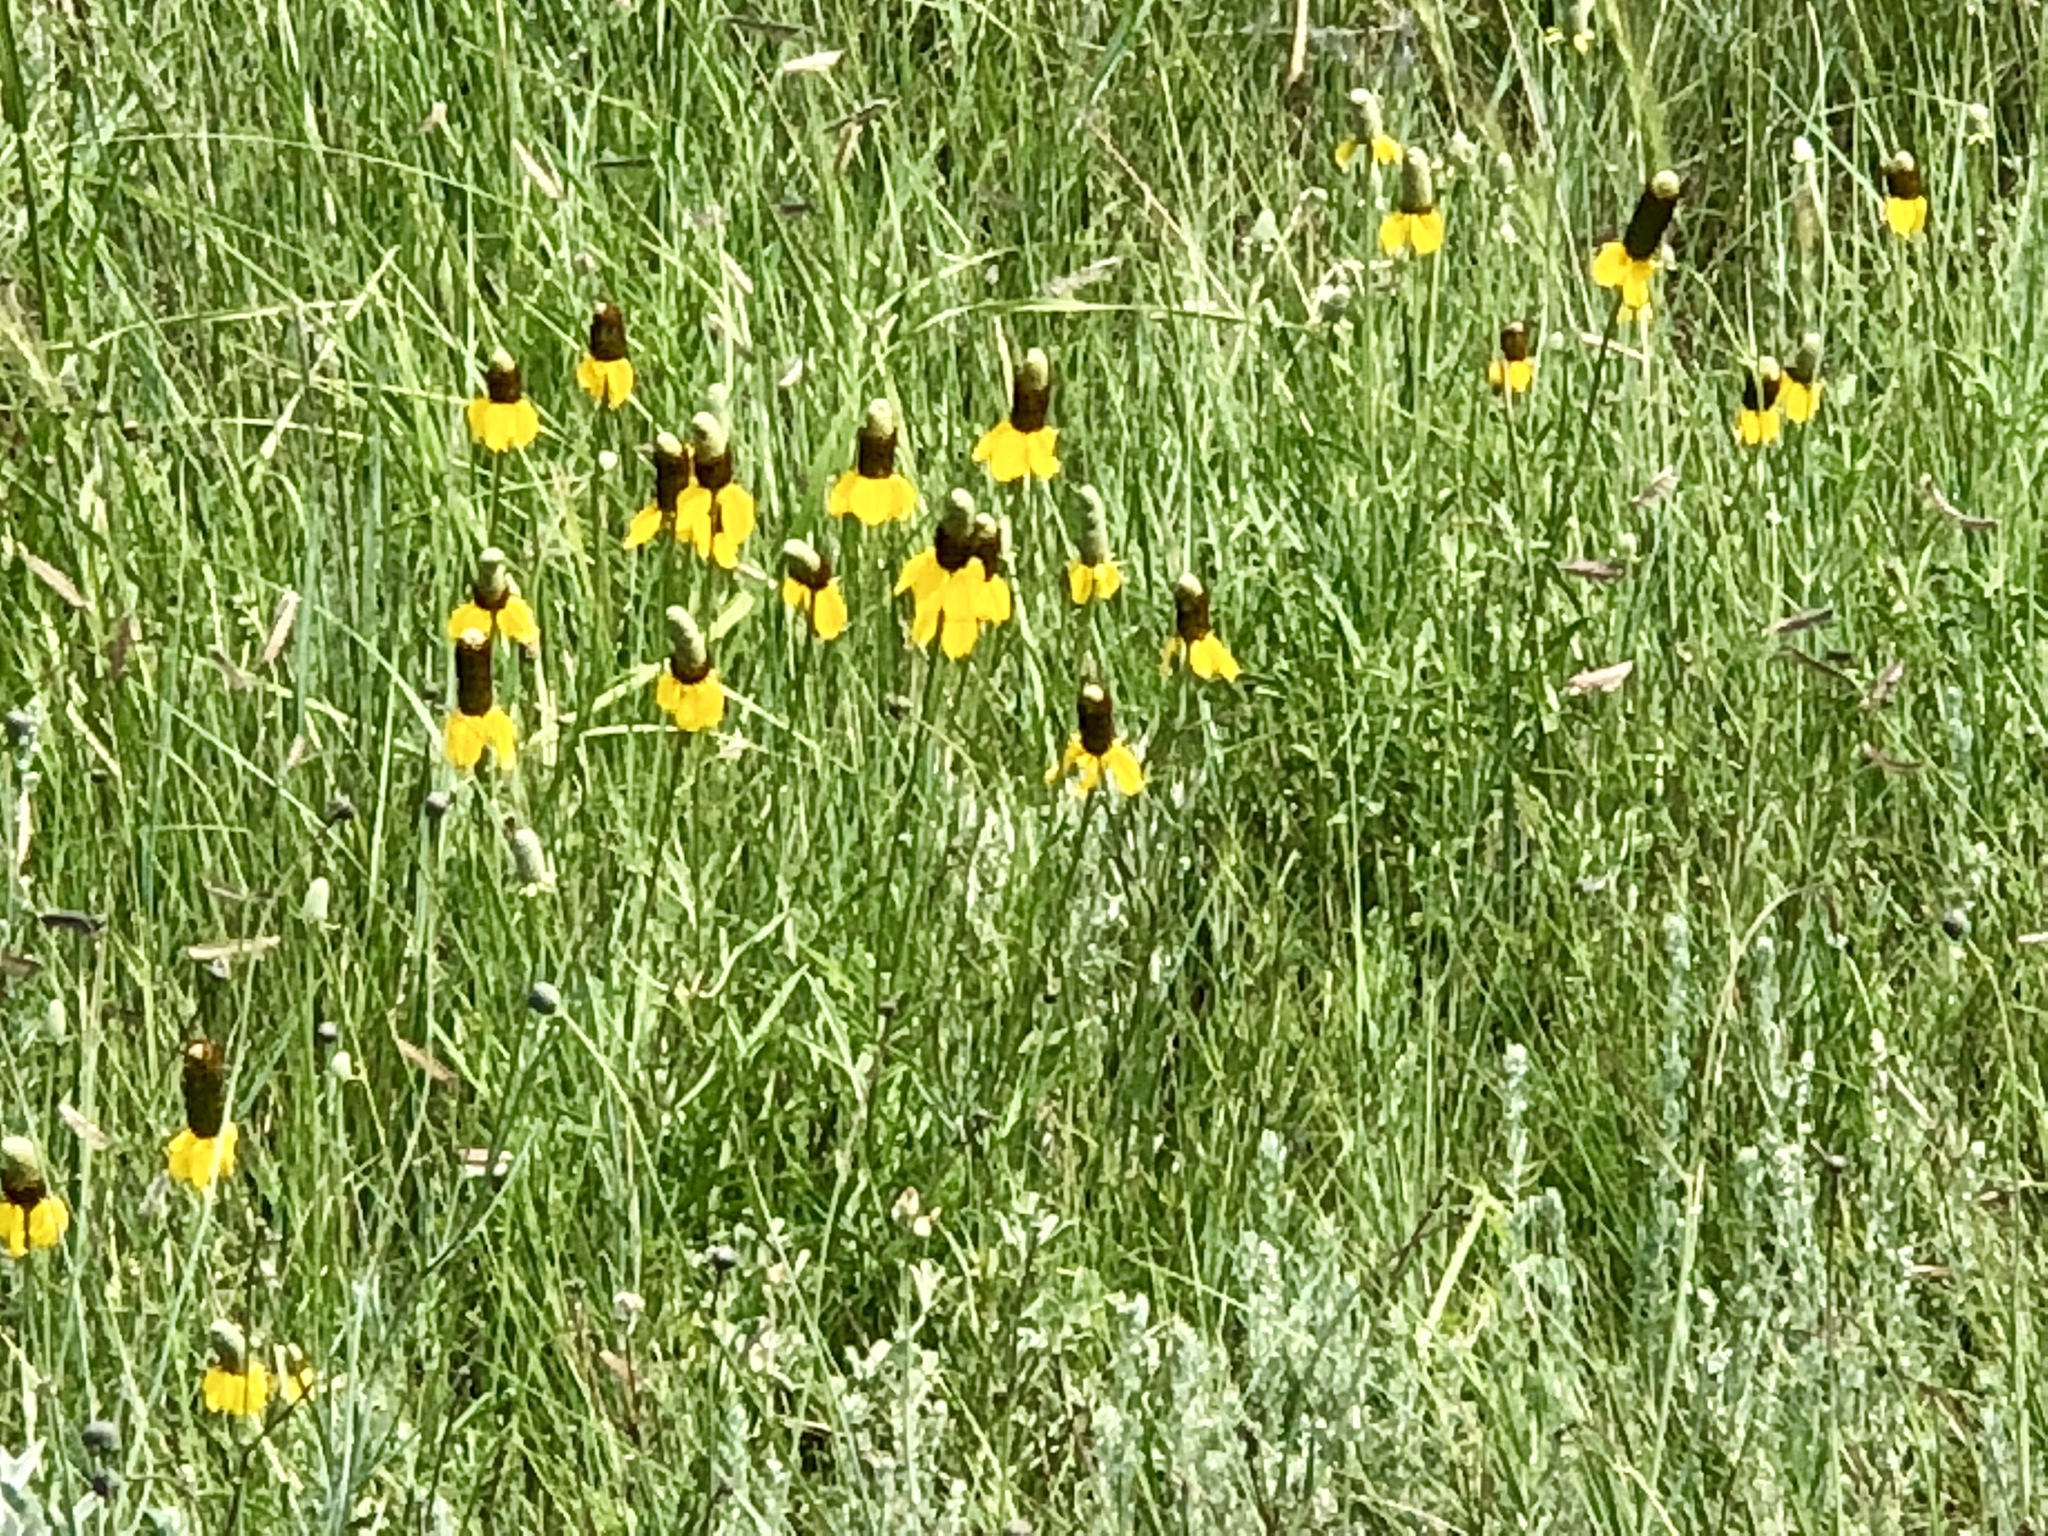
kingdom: Plantae
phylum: Tracheophyta
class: Magnoliopsida
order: Asterales
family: Asteraceae
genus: Ratibida
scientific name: Ratibida columnifera
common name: Prairie coneflower
